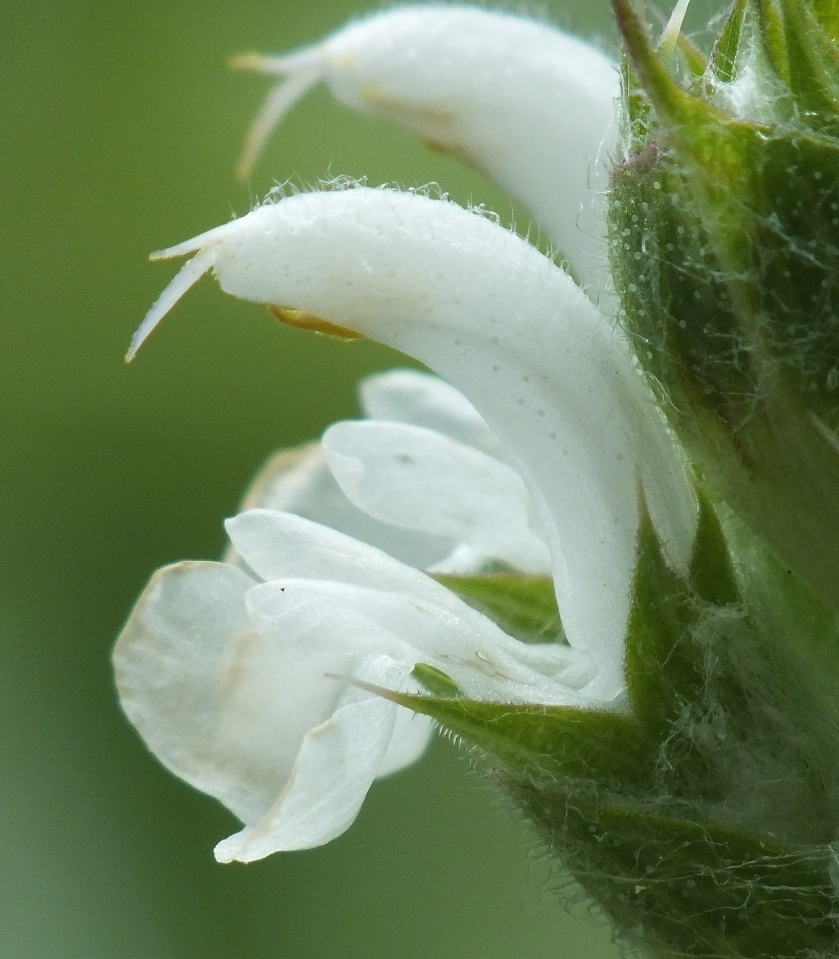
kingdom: Plantae
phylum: Tracheophyta
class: Magnoliopsida
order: Lamiales
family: Lamiaceae
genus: Salvia
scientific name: Salvia aethiopis
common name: Mediterranean sage
